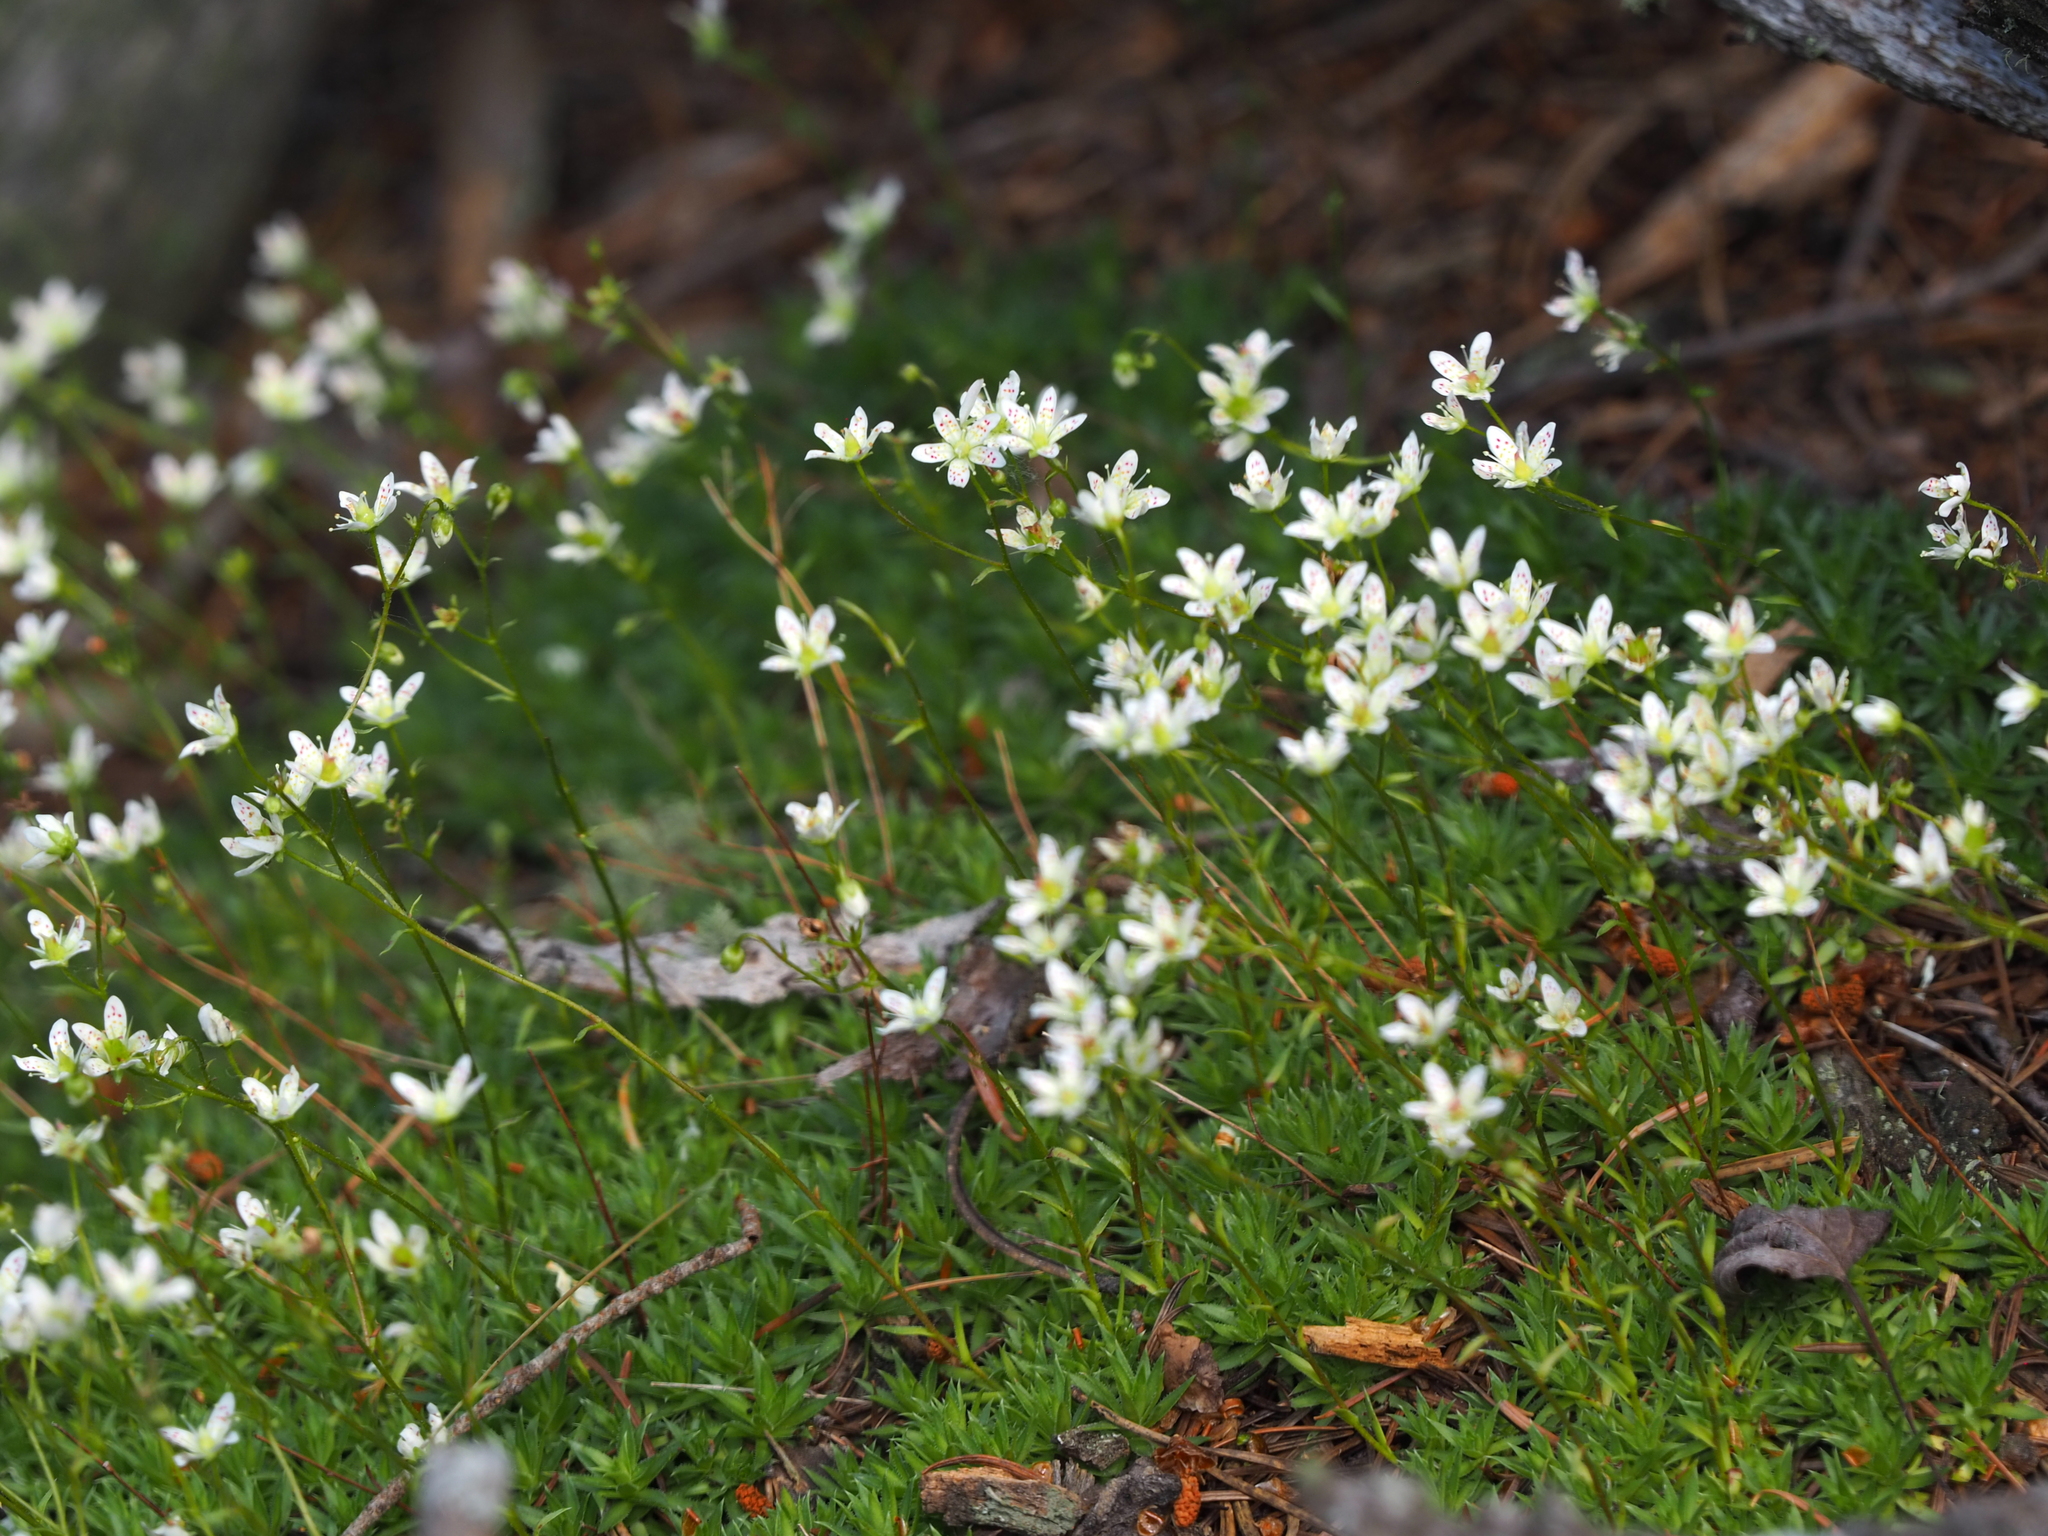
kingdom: Plantae
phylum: Tracheophyta
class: Magnoliopsida
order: Saxifragales
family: Saxifragaceae
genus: Saxifraga
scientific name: Saxifraga bronchialis
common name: Matted saxifrage
